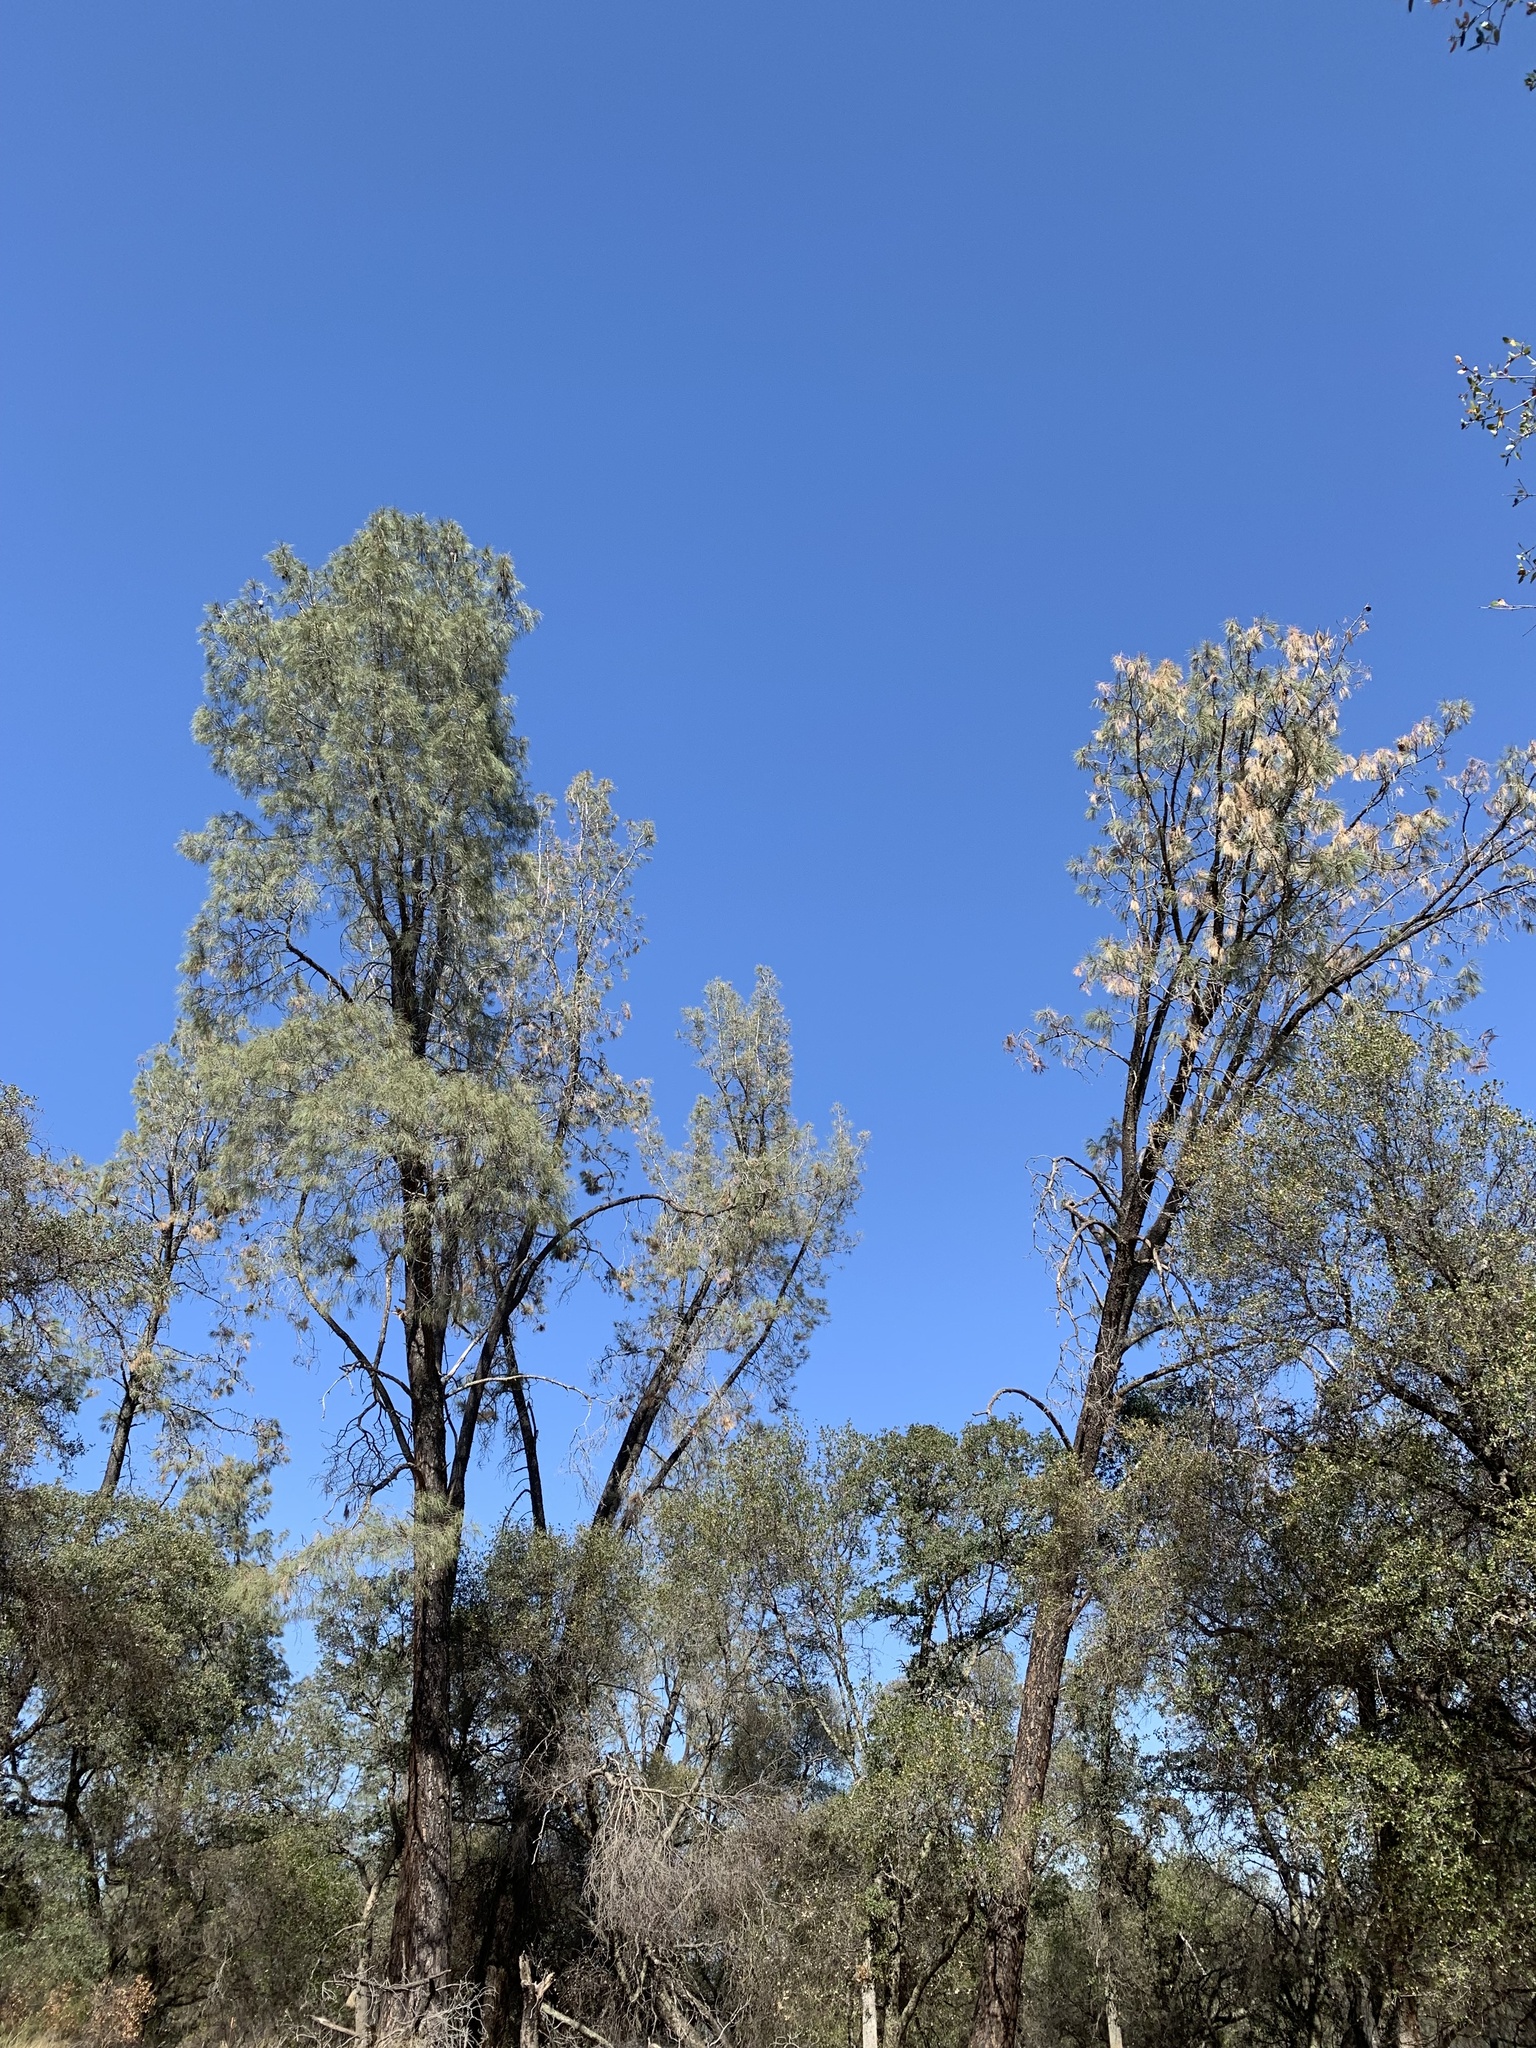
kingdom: Plantae
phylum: Tracheophyta
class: Pinopsida
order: Pinales
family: Pinaceae
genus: Pinus
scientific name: Pinus sabiniana
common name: Bull pine
